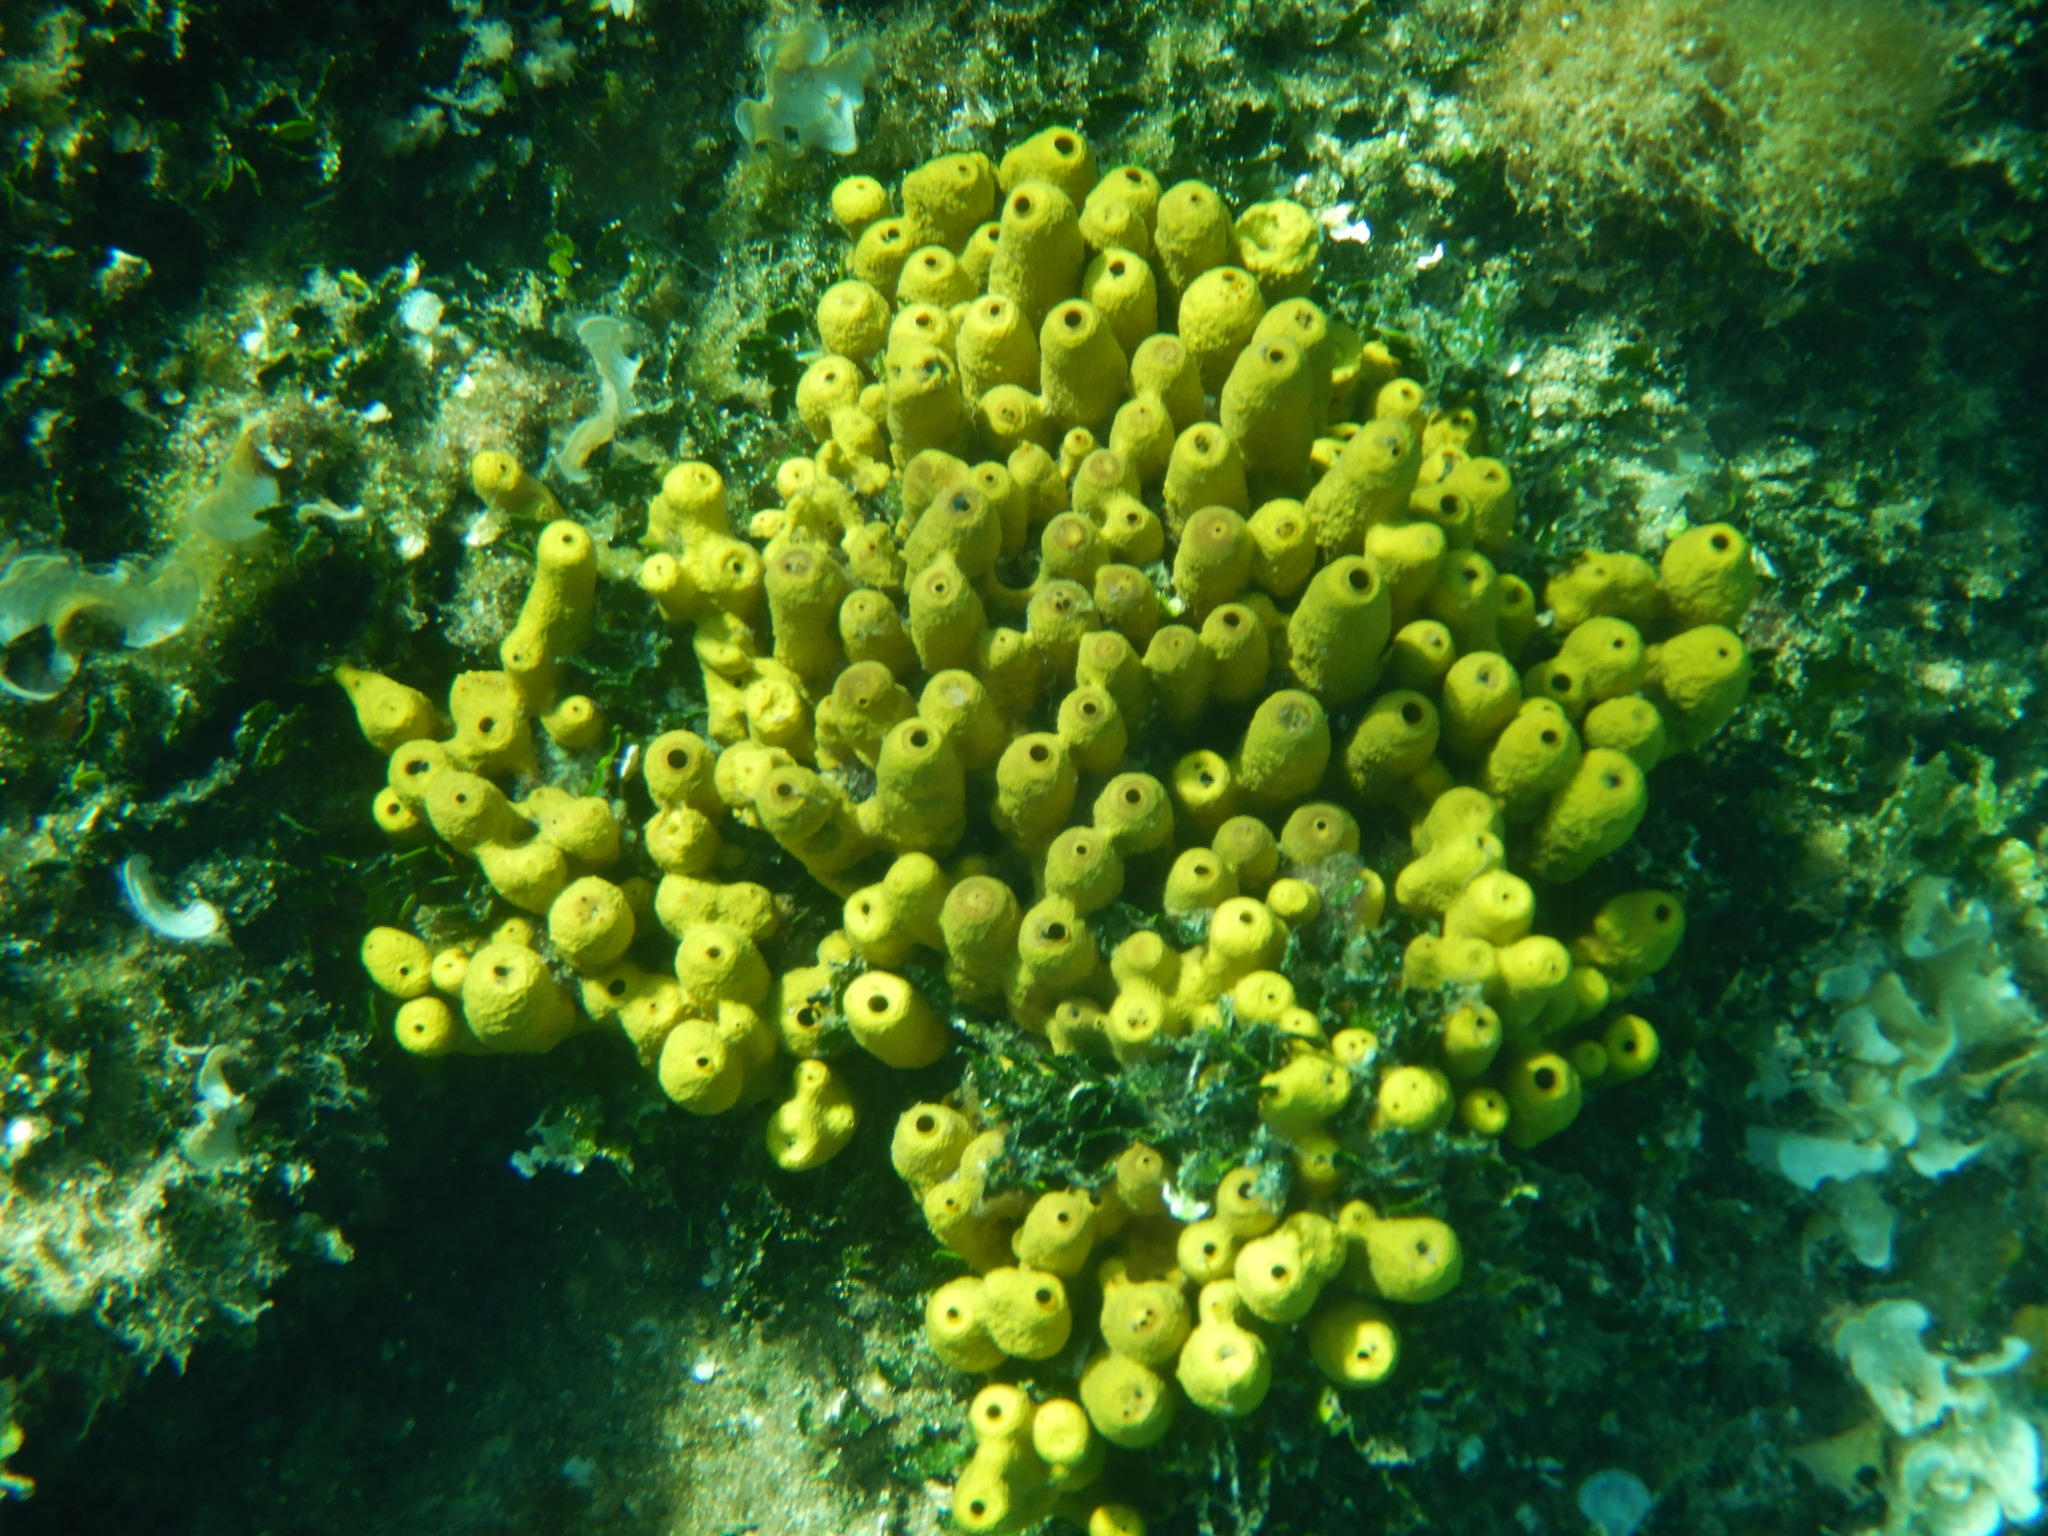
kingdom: Animalia
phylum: Porifera
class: Demospongiae
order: Verongiida
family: Aplysinidae
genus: Aplysina
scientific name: Aplysina aerophoba
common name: Aureate sponge
